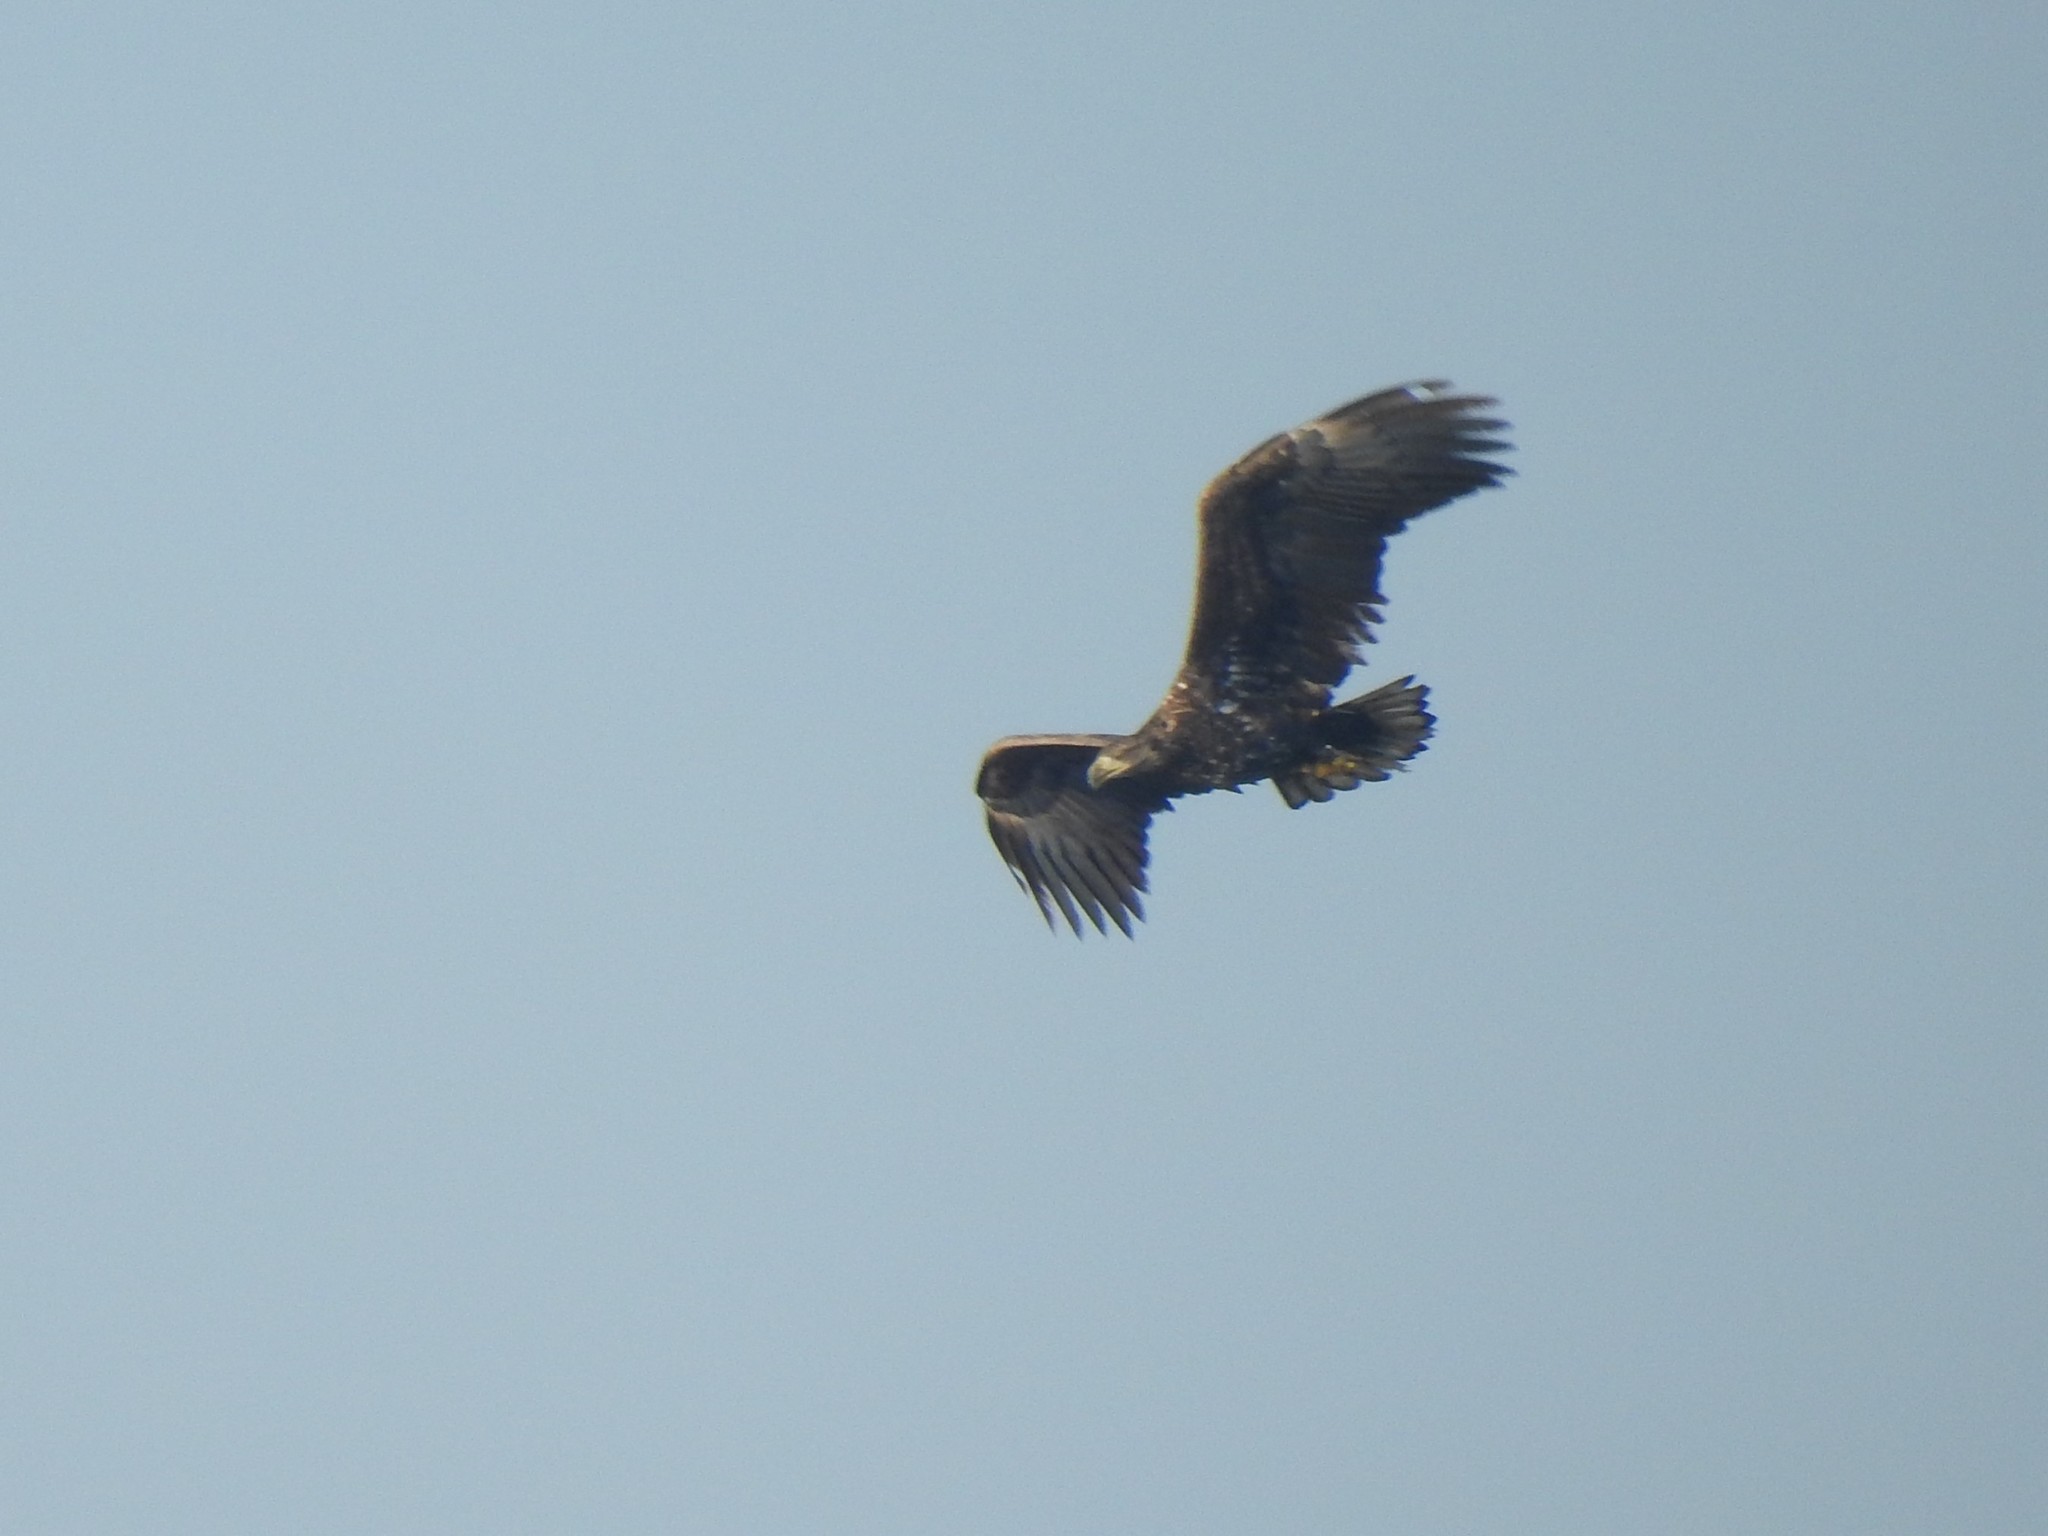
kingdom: Animalia
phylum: Chordata
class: Aves
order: Accipitriformes
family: Accipitridae
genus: Haliaeetus
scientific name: Haliaeetus albicilla
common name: White-tailed eagle
